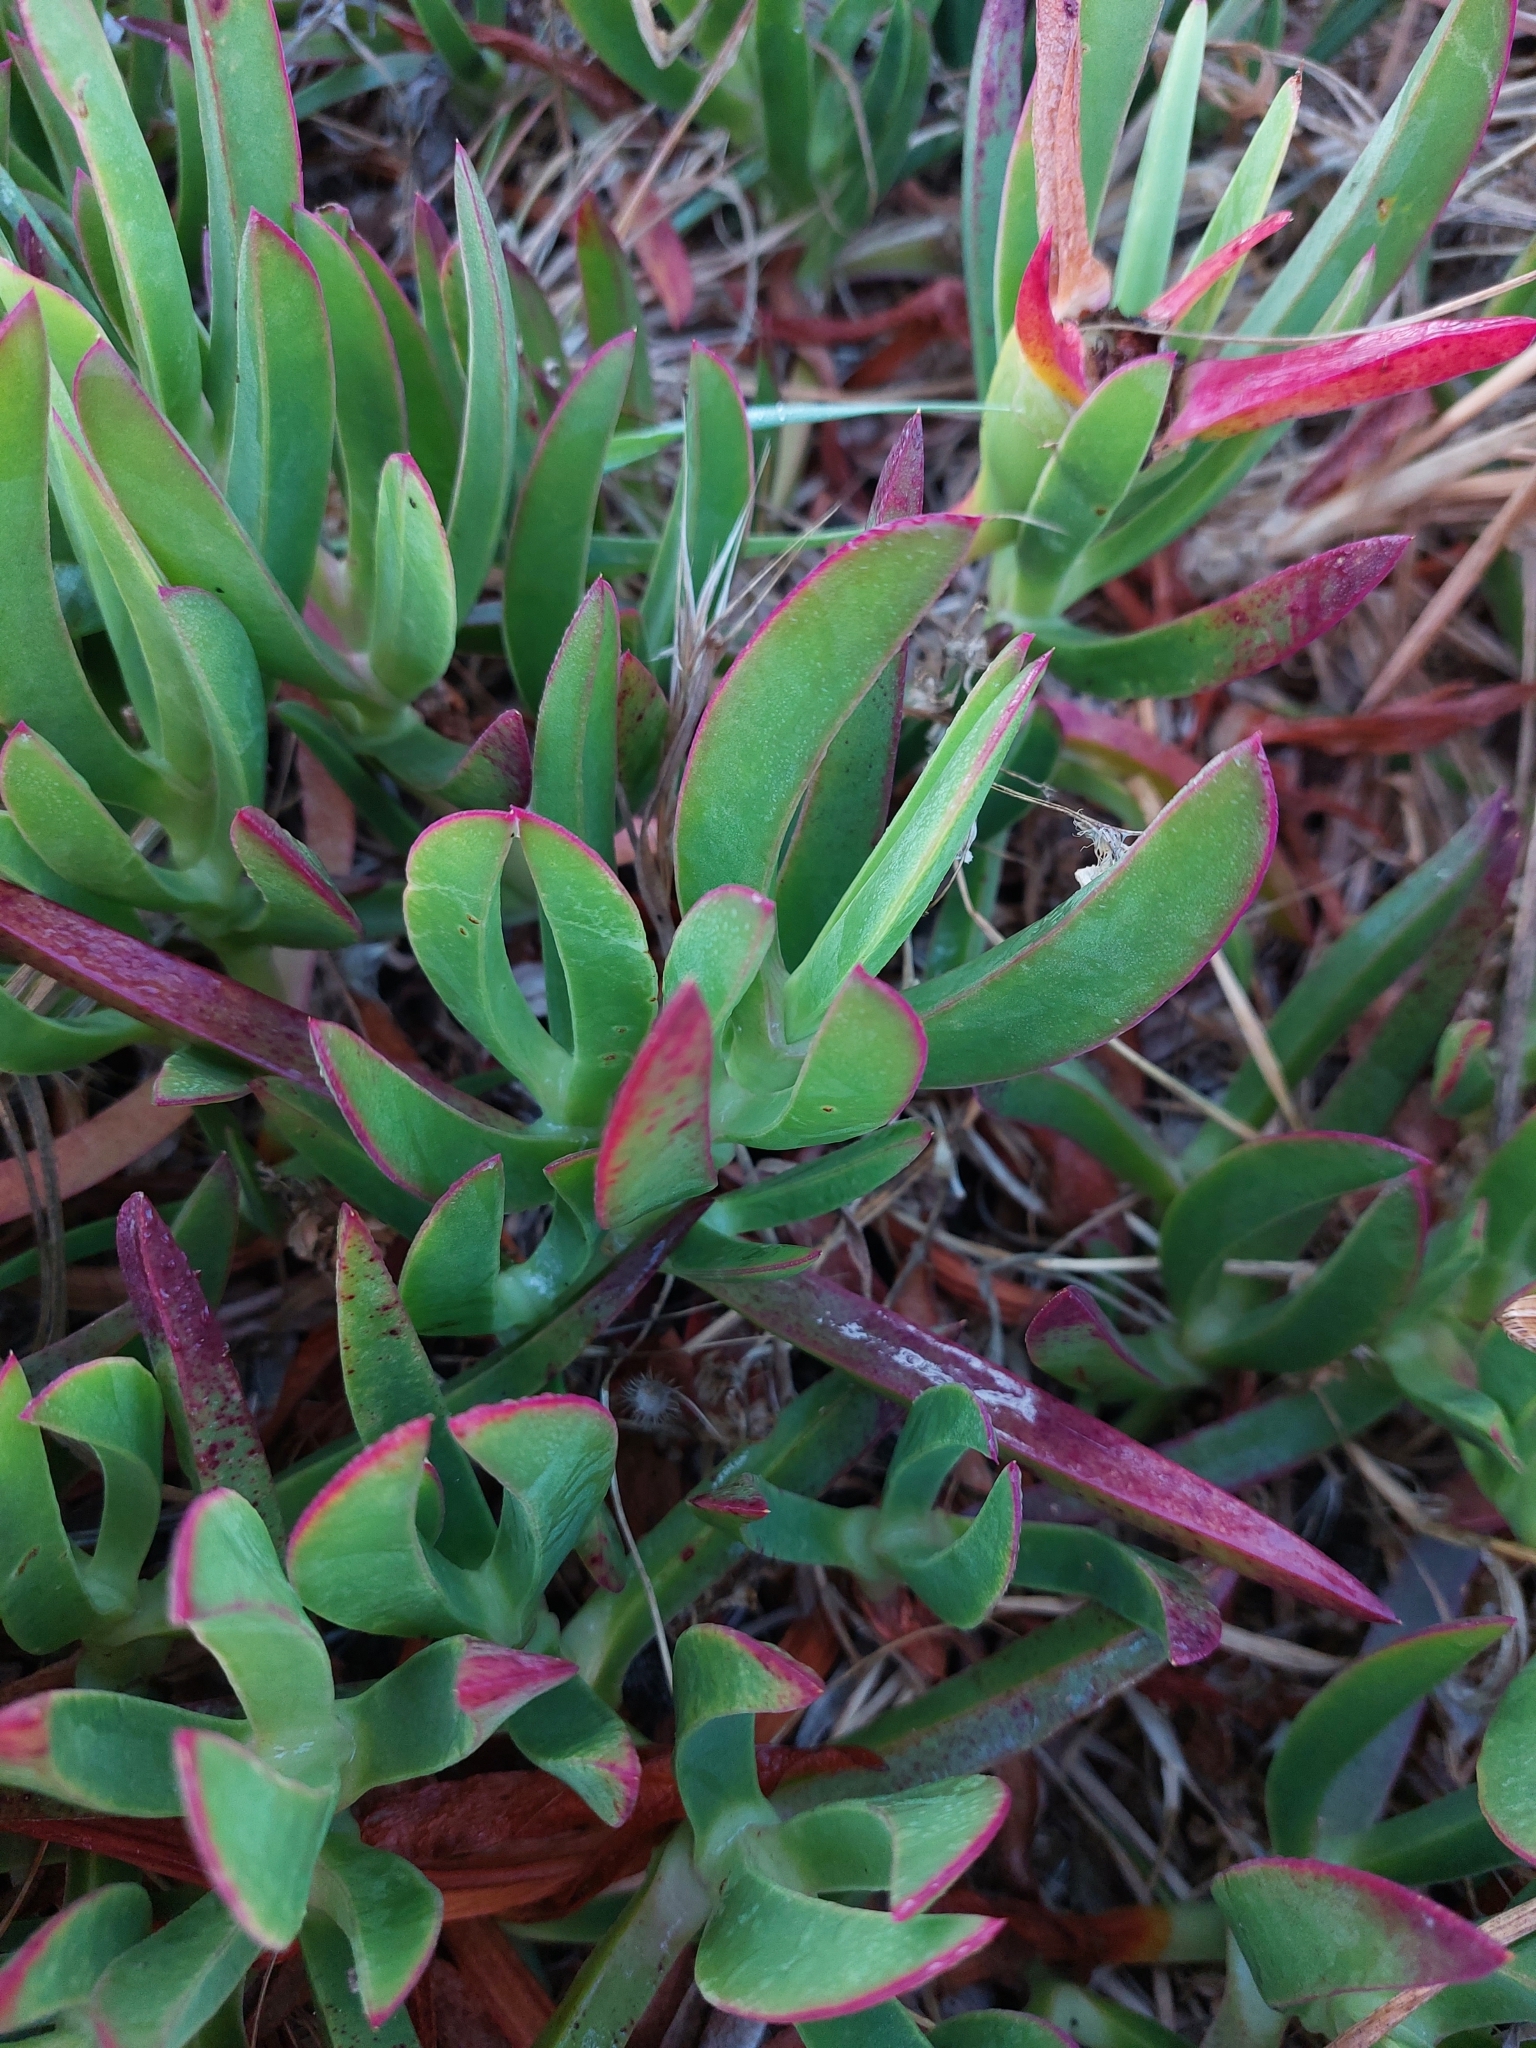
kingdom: Plantae
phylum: Tracheophyta
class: Magnoliopsida
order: Caryophyllales
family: Aizoaceae
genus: Carpobrotus
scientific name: Carpobrotus acinaciformis
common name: Sally-my-handsome
